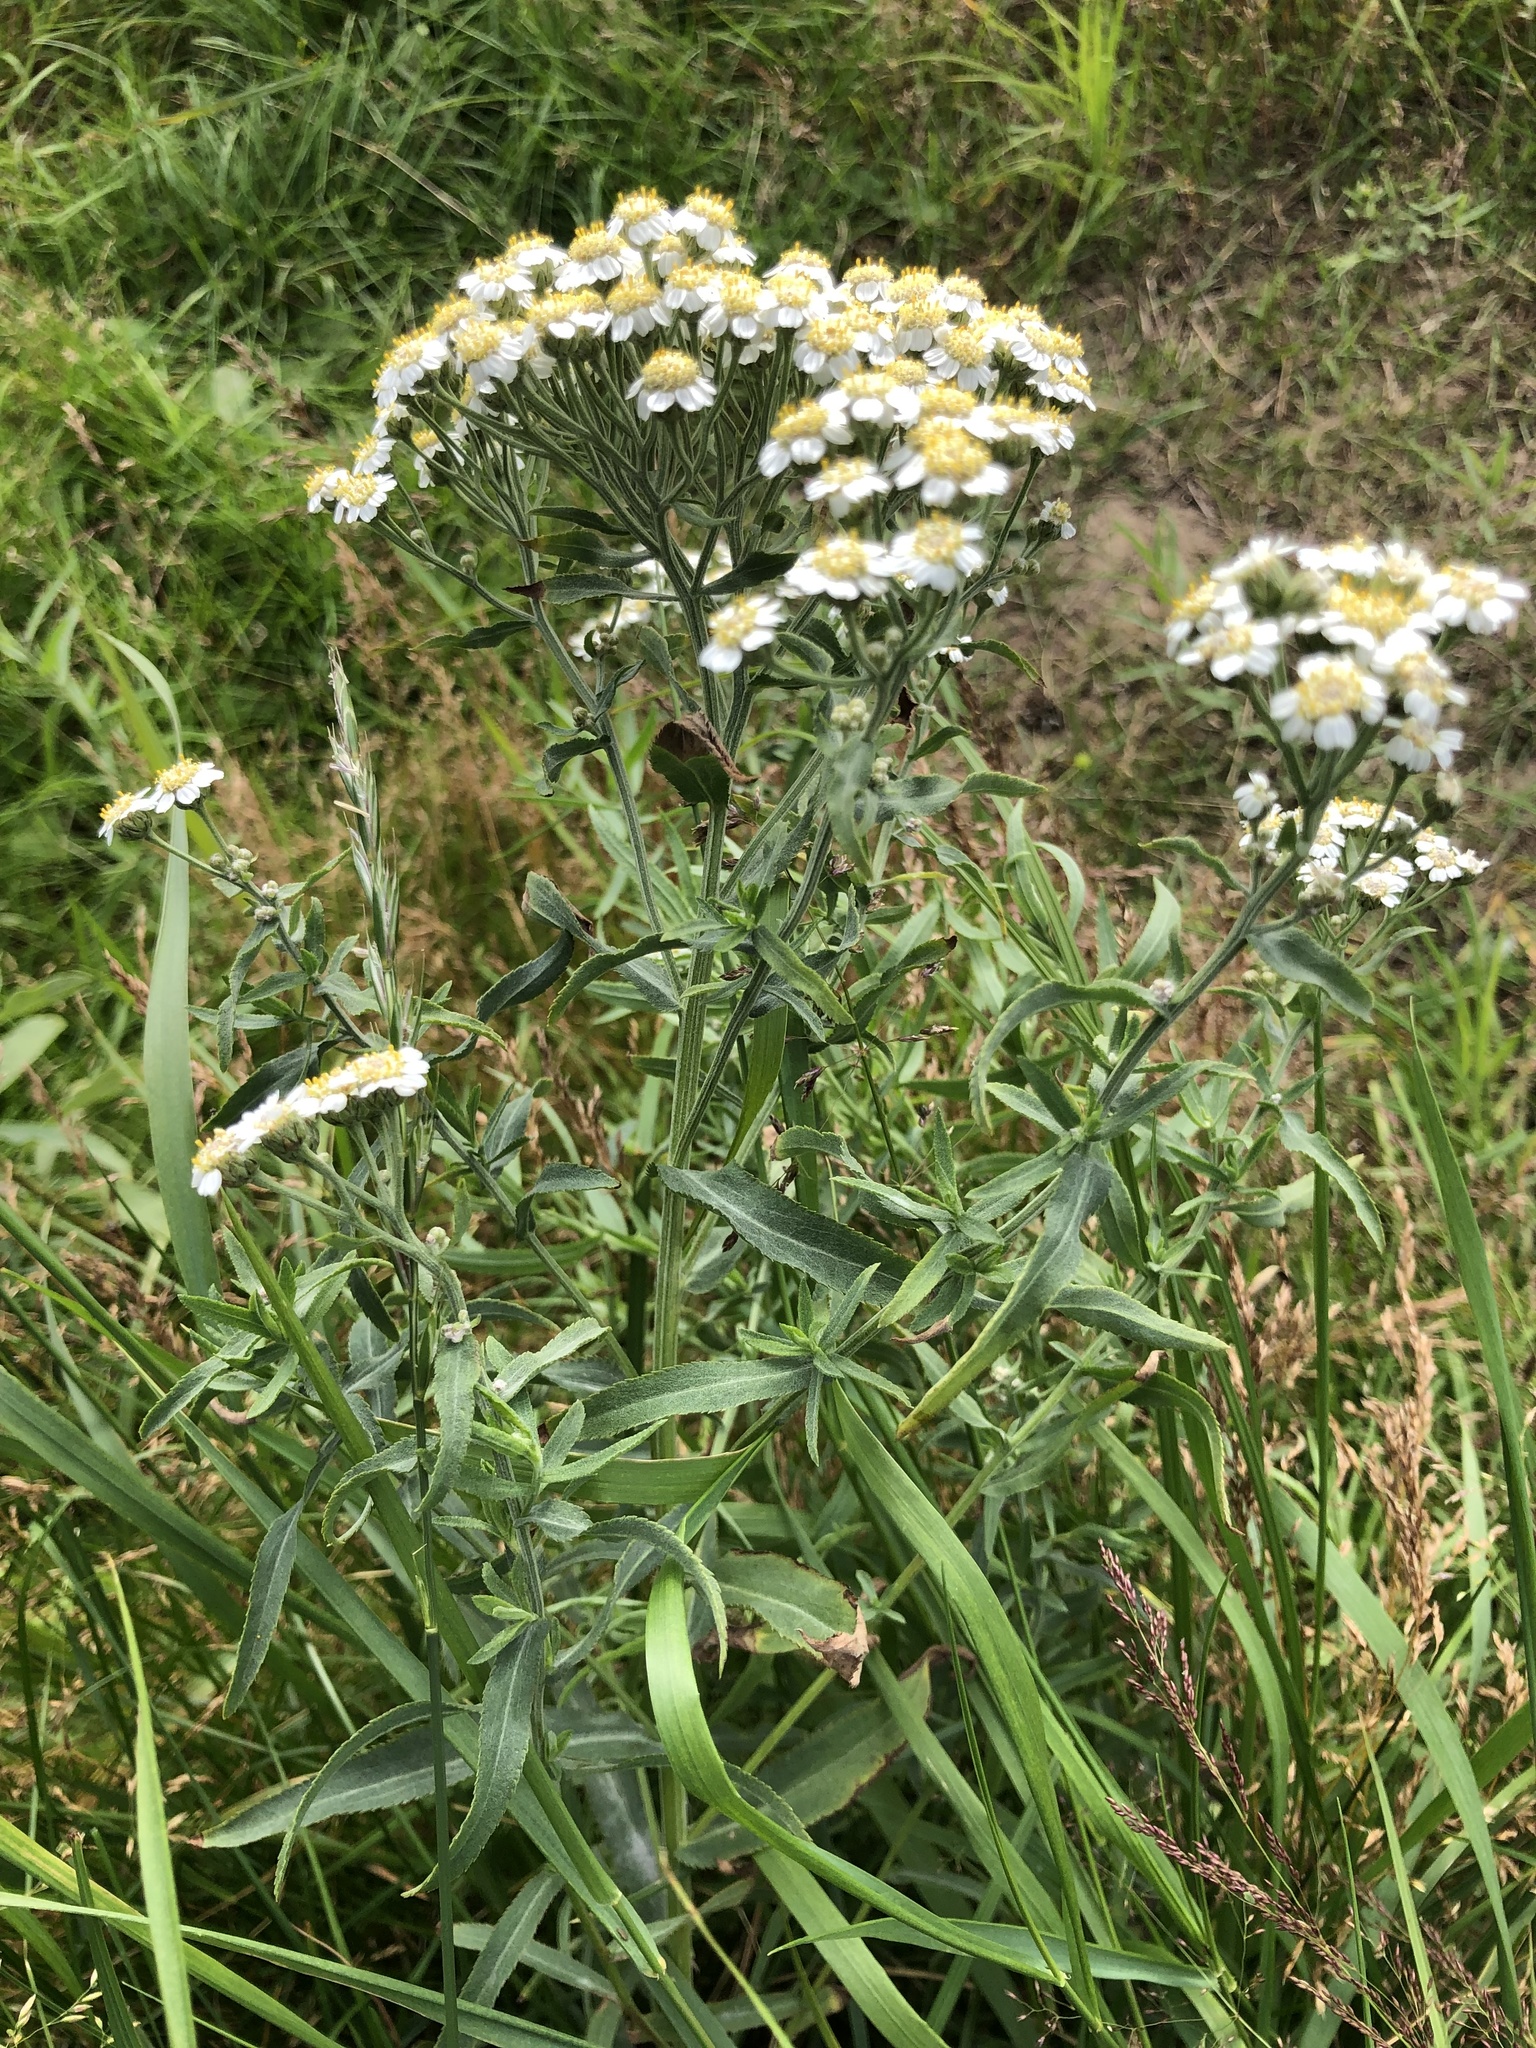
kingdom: Plantae
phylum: Tracheophyta
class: Magnoliopsida
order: Asterales
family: Asteraceae
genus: Achillea
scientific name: Achillea salicifolia
